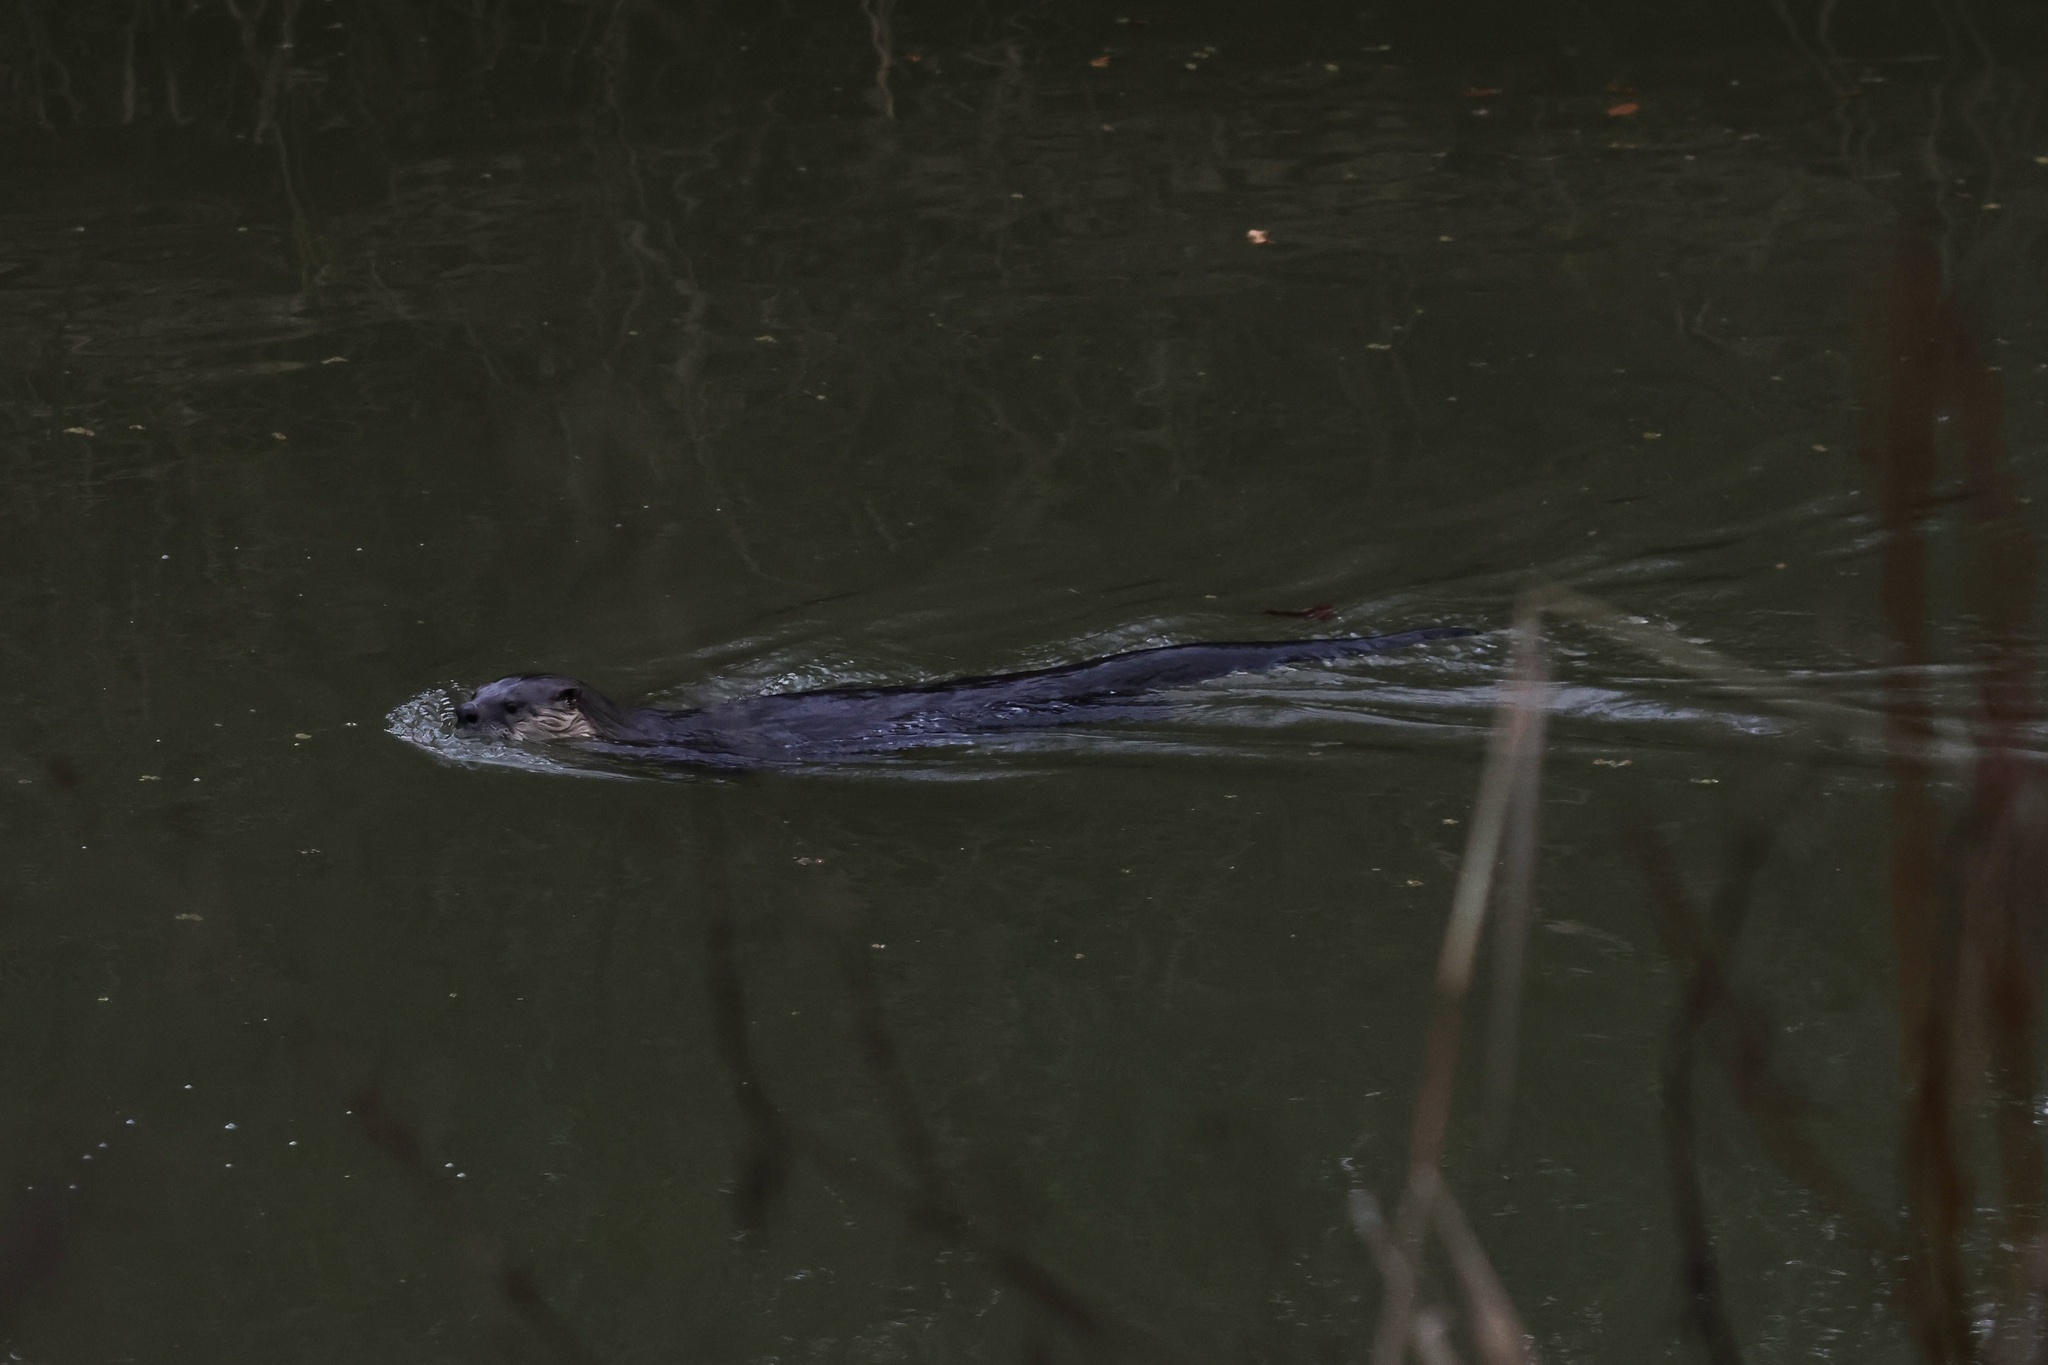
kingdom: Animalia
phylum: Chordata
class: Mammalia
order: Carnivora
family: Mustelidae
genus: Lontra
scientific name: Lontra canadensis
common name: North american river otter
